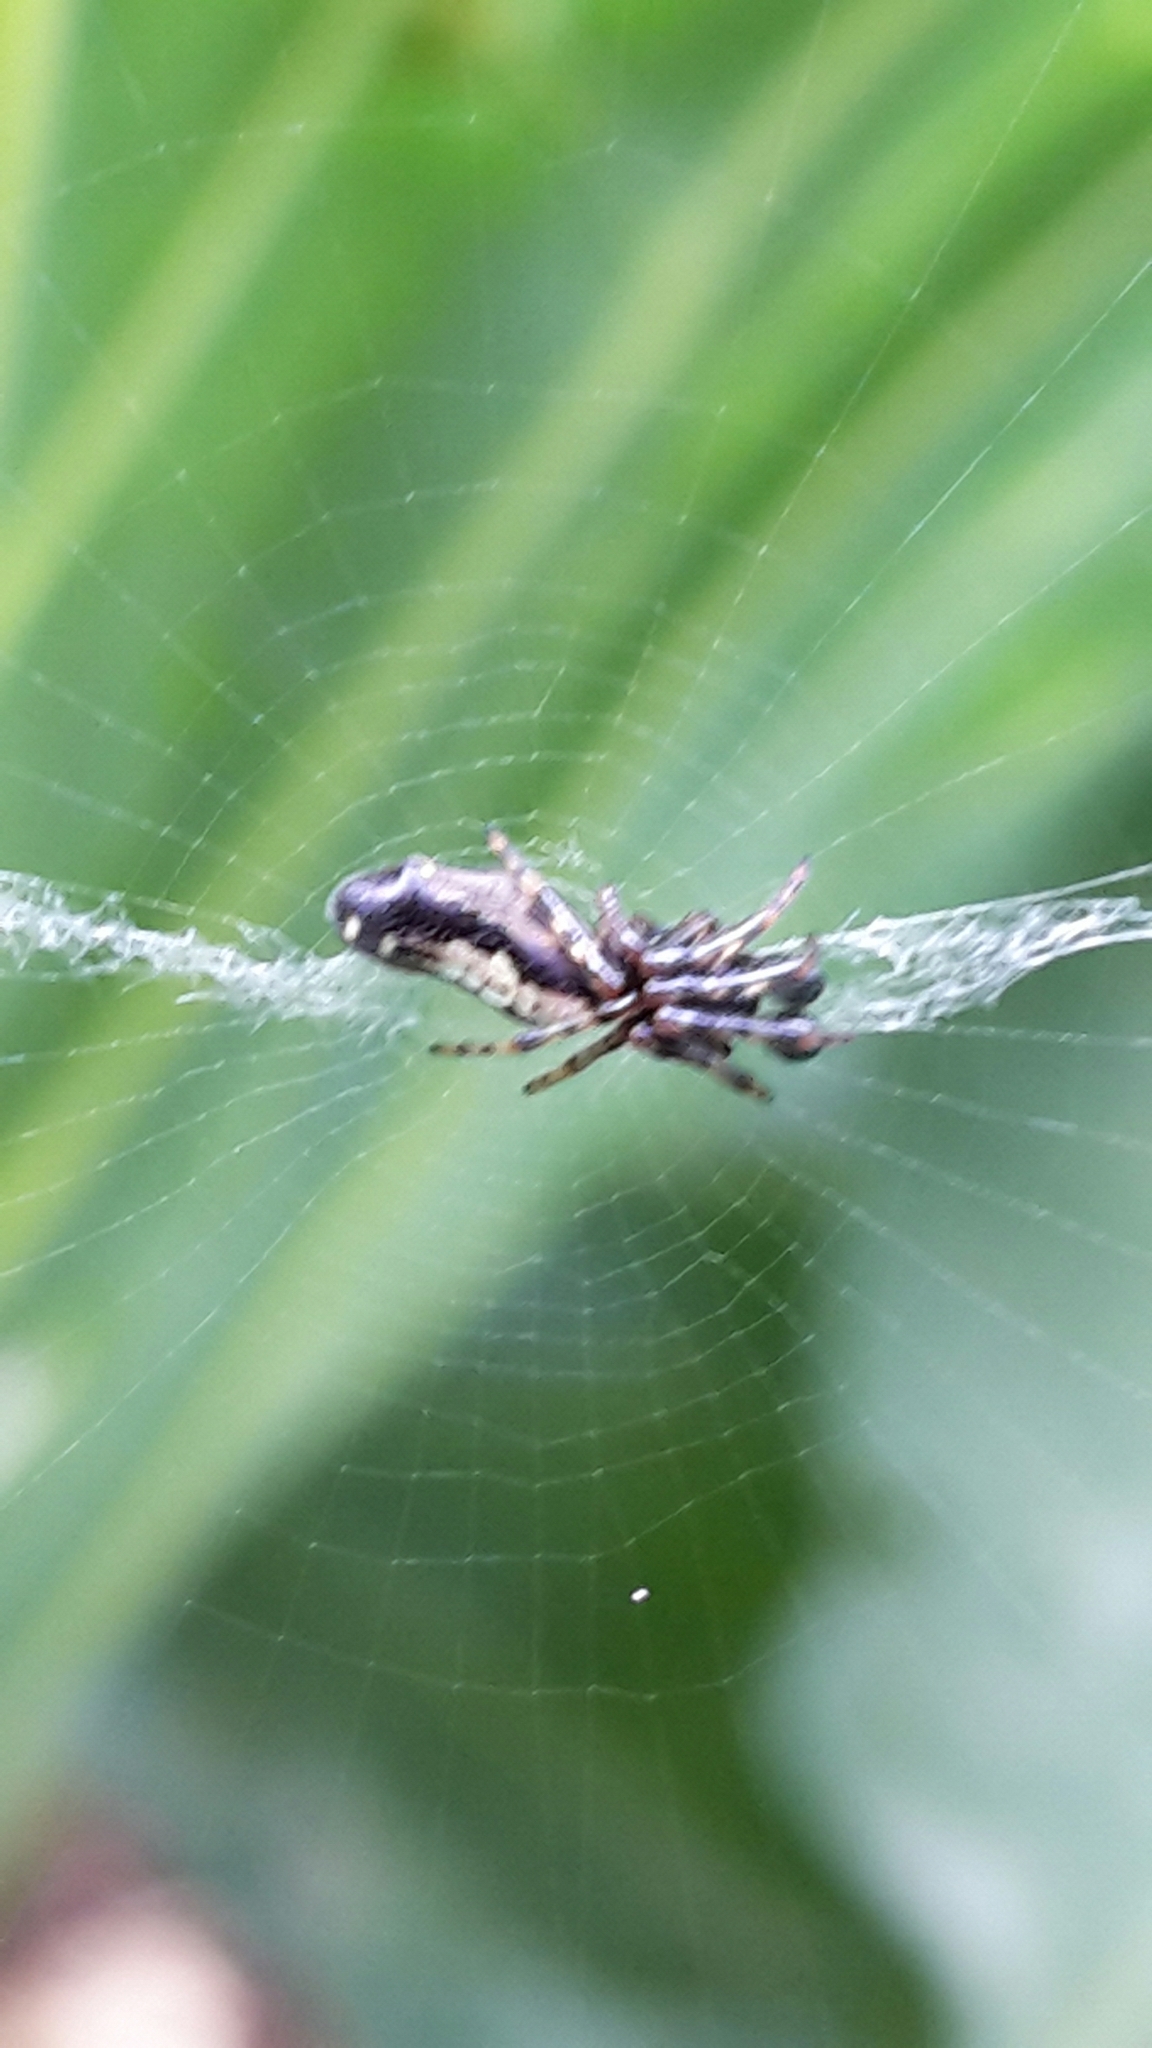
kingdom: Animalia
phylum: Arthropoda
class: Arachnida
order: Araneae
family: Araneidae
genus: Cyclosa
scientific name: Cyclosa trilobata
